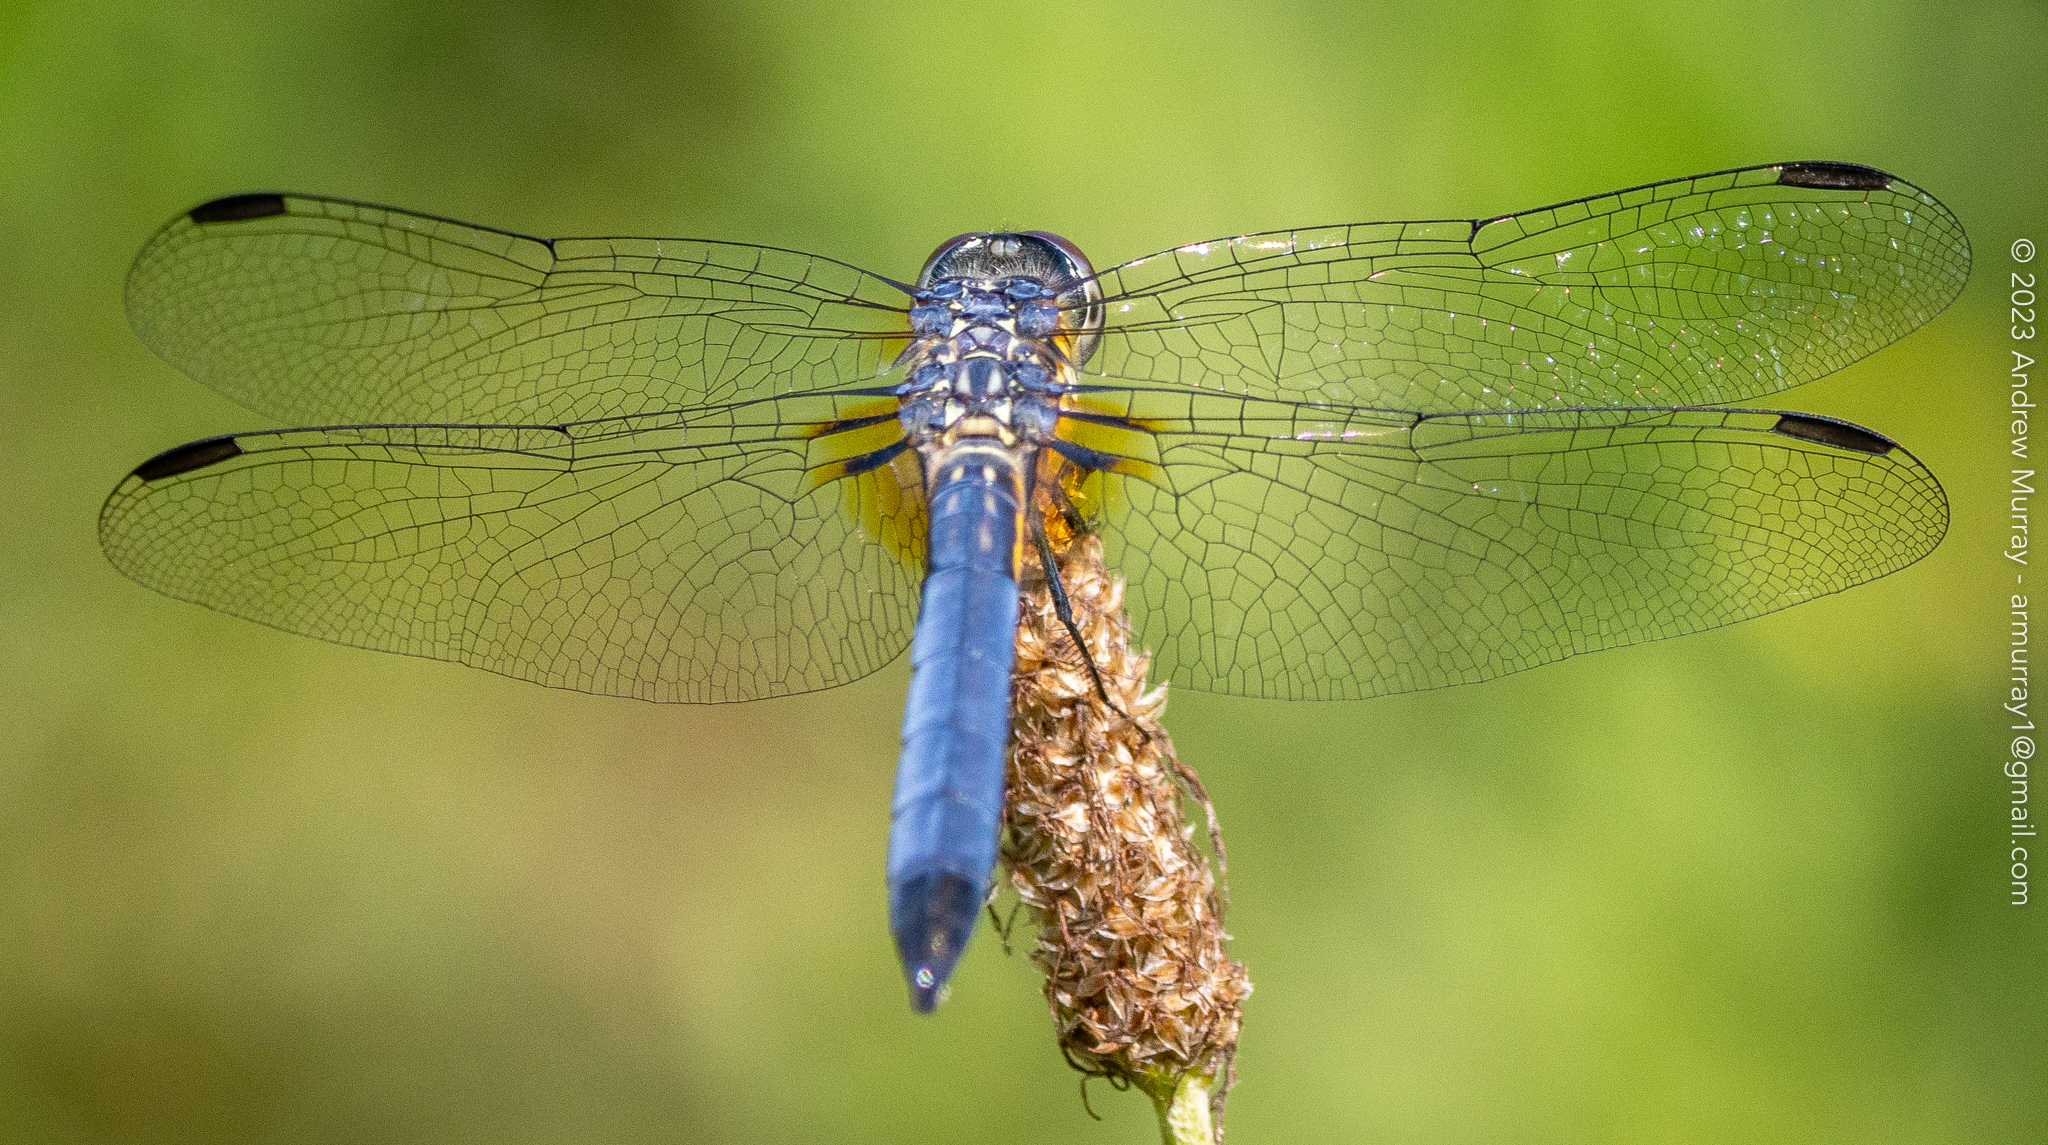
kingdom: Animalia
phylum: Arthropoda
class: Insecta
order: Odonata
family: Libellulidae
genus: Pachydiplax
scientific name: Pachydiplax longipennis
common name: Blue dasher
